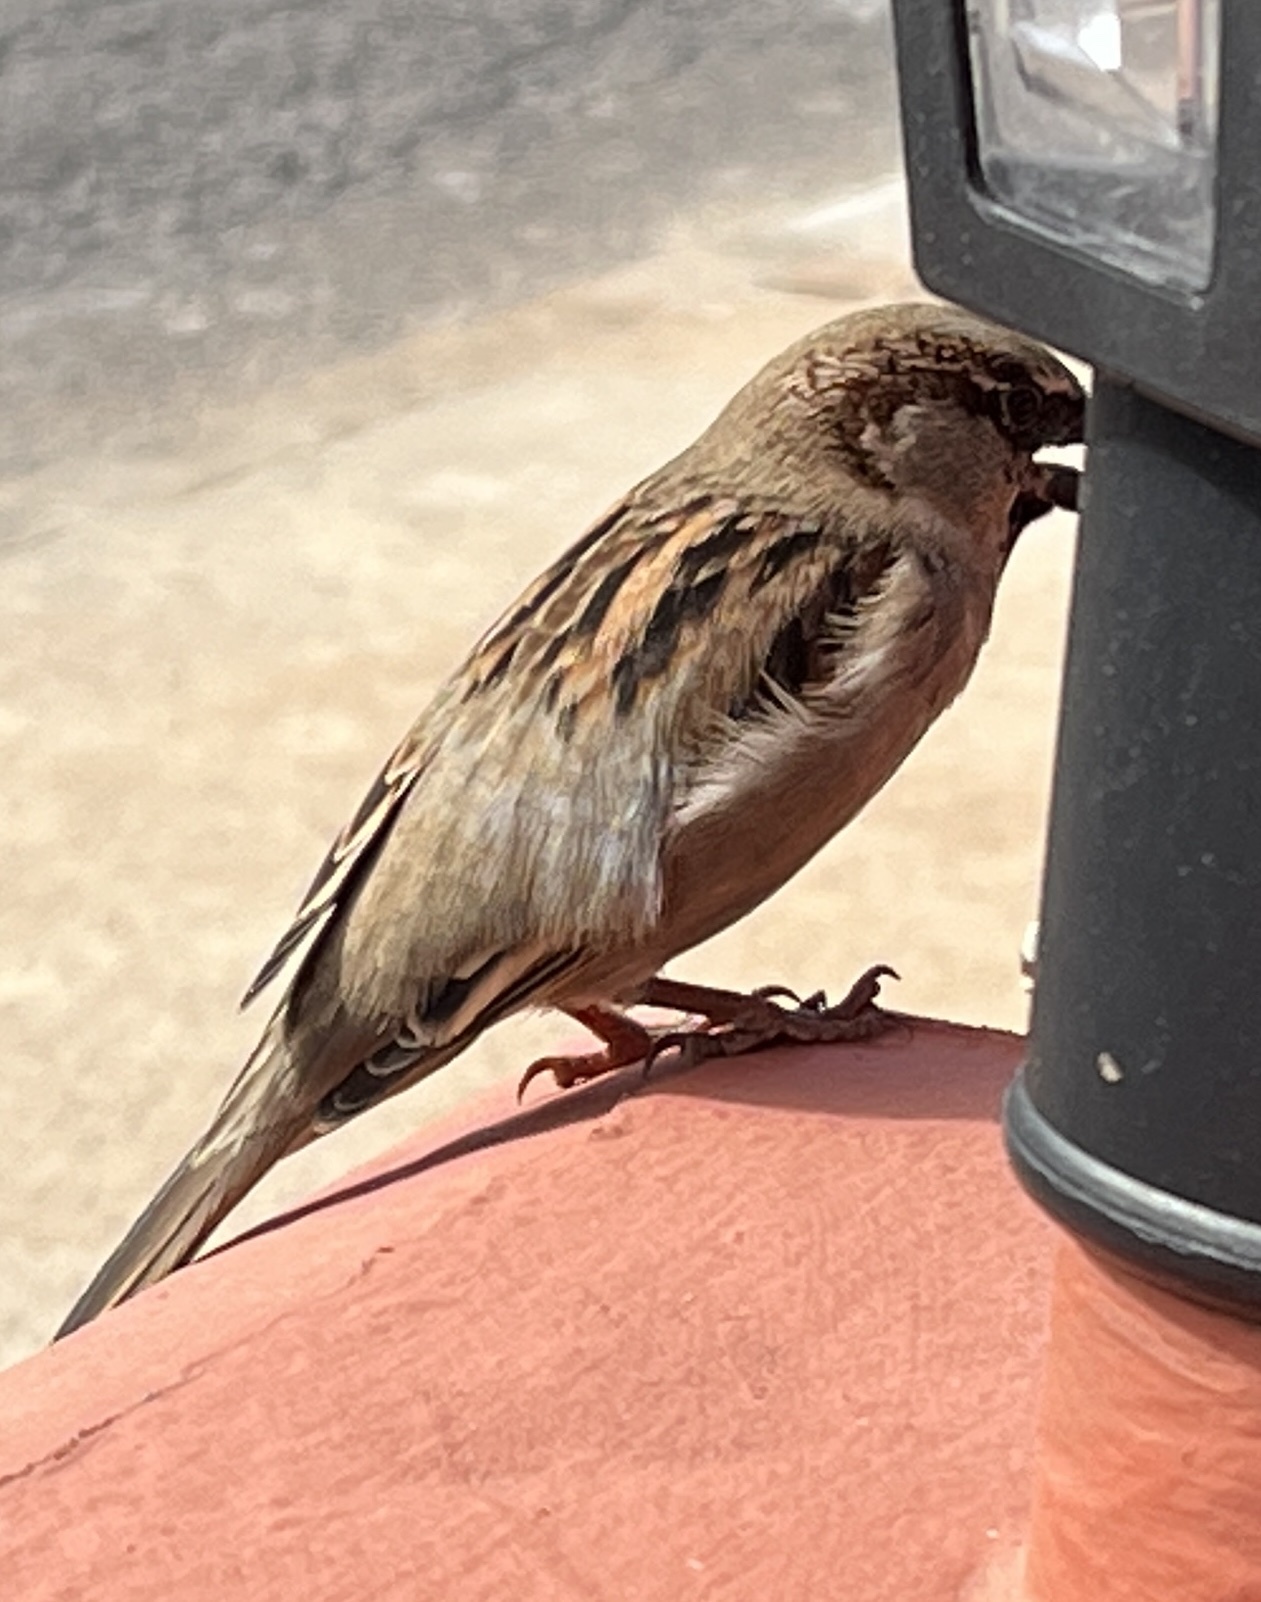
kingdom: Animalia
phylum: Chordata
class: Aves
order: Passeriformes
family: Passeridae
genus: Passer
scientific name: Passer domesticus
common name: House sparrow
